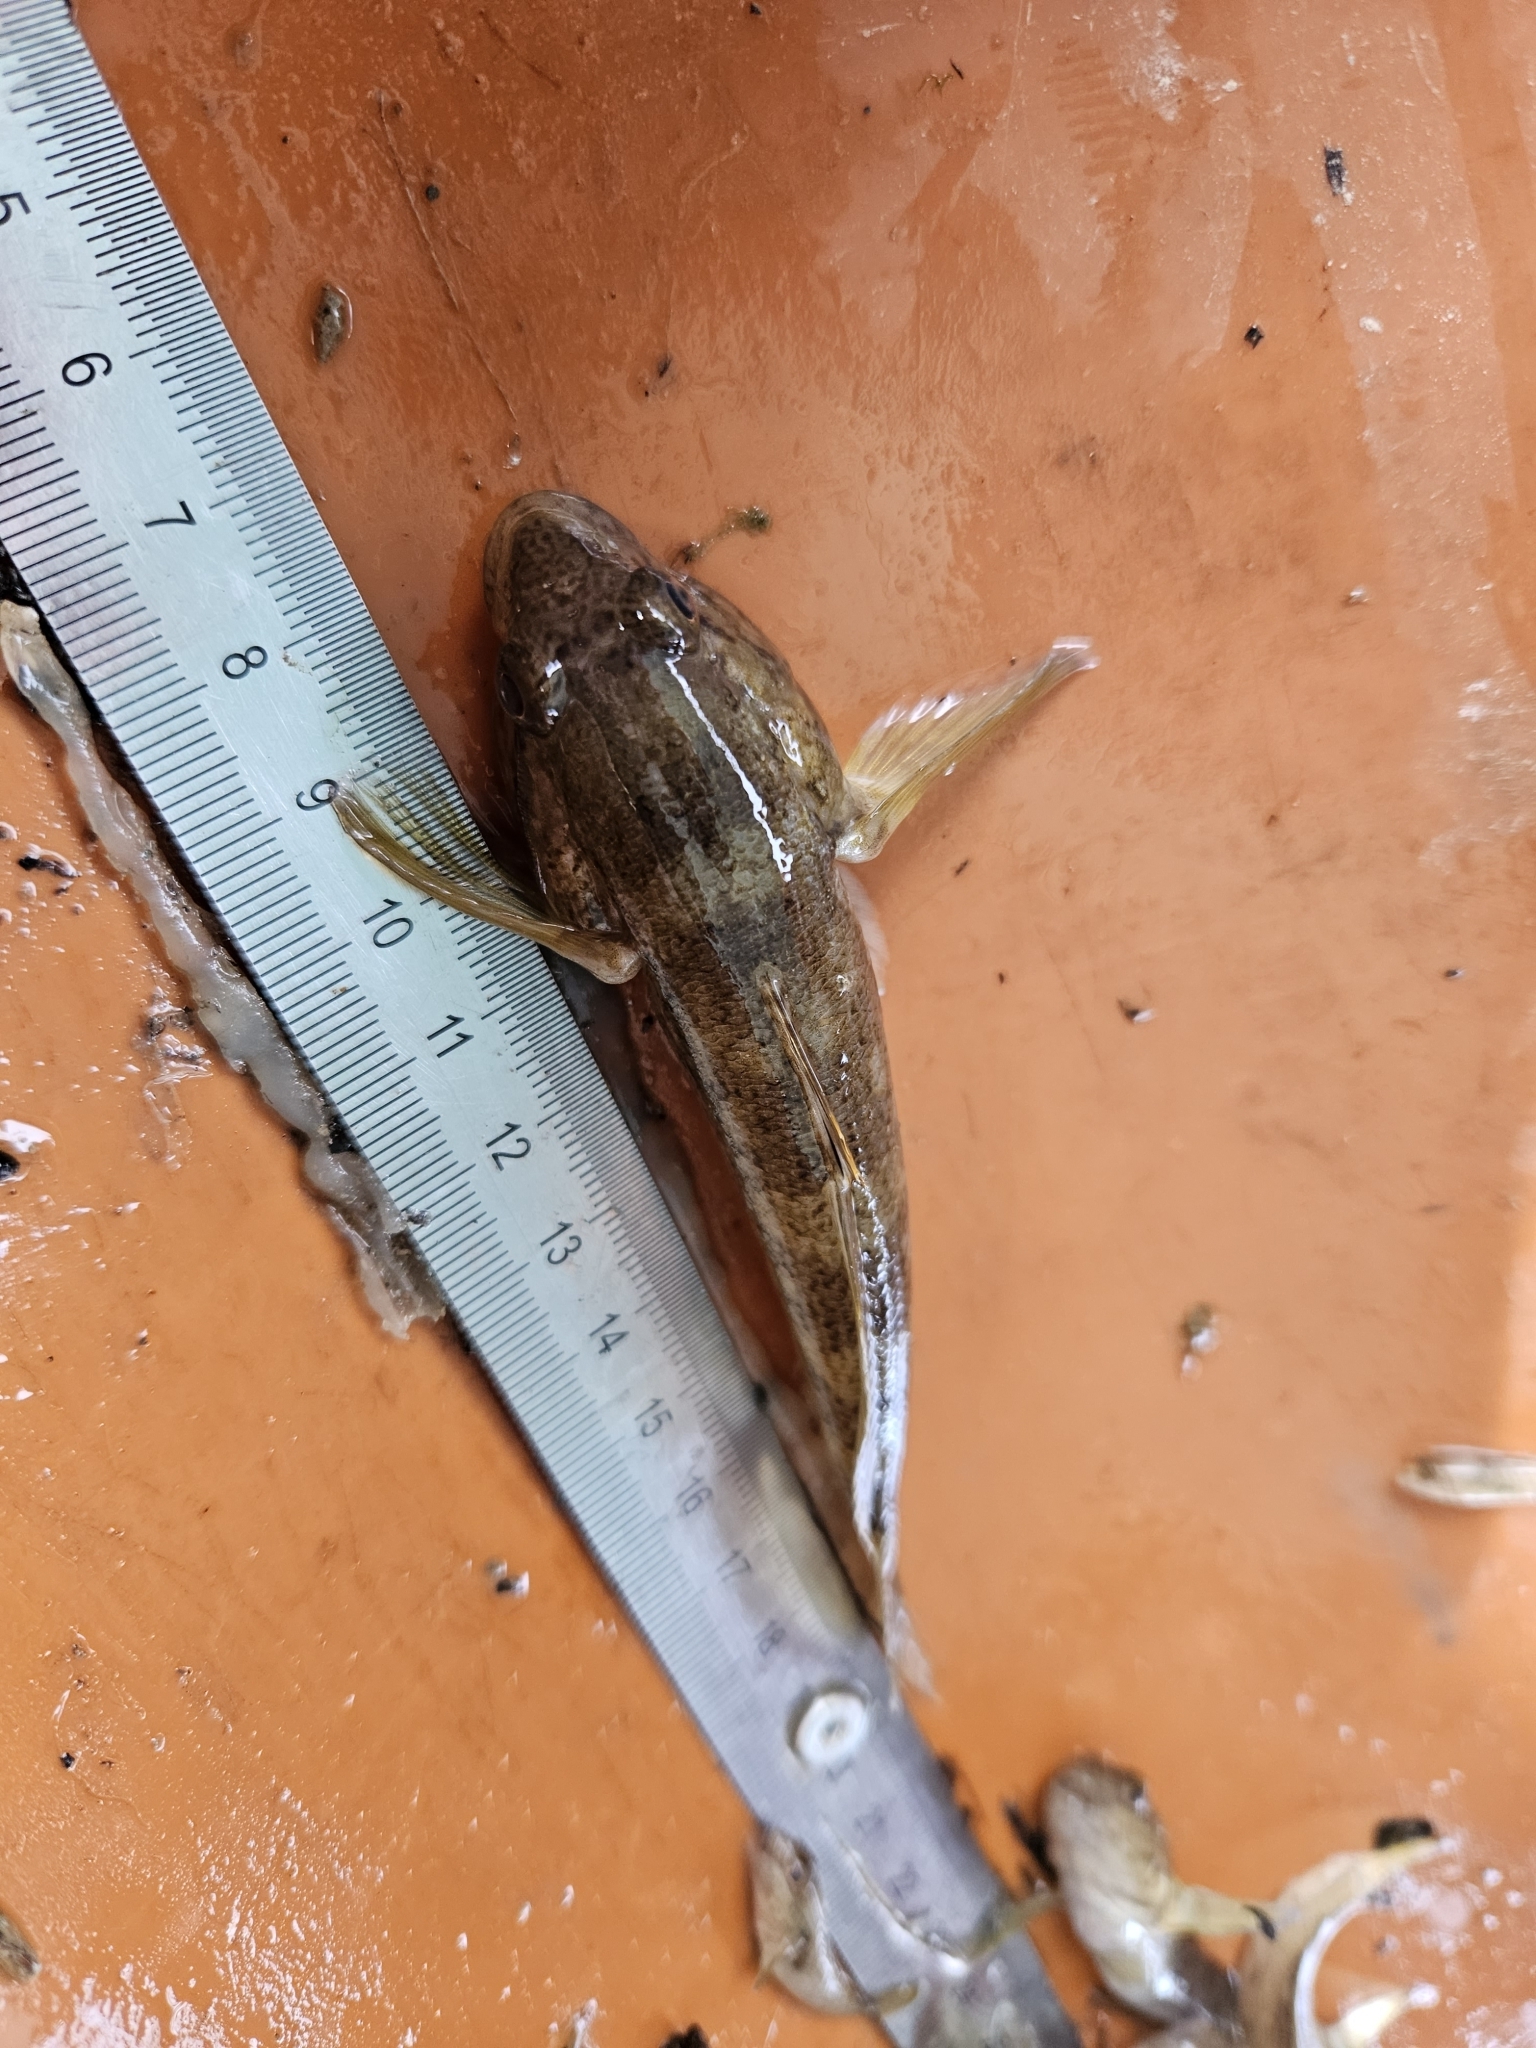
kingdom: Animalia
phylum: Chordata
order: Perciformes
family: Gobiidae
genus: Neogobius
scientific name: Neogobius melanostomus
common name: Round goby
